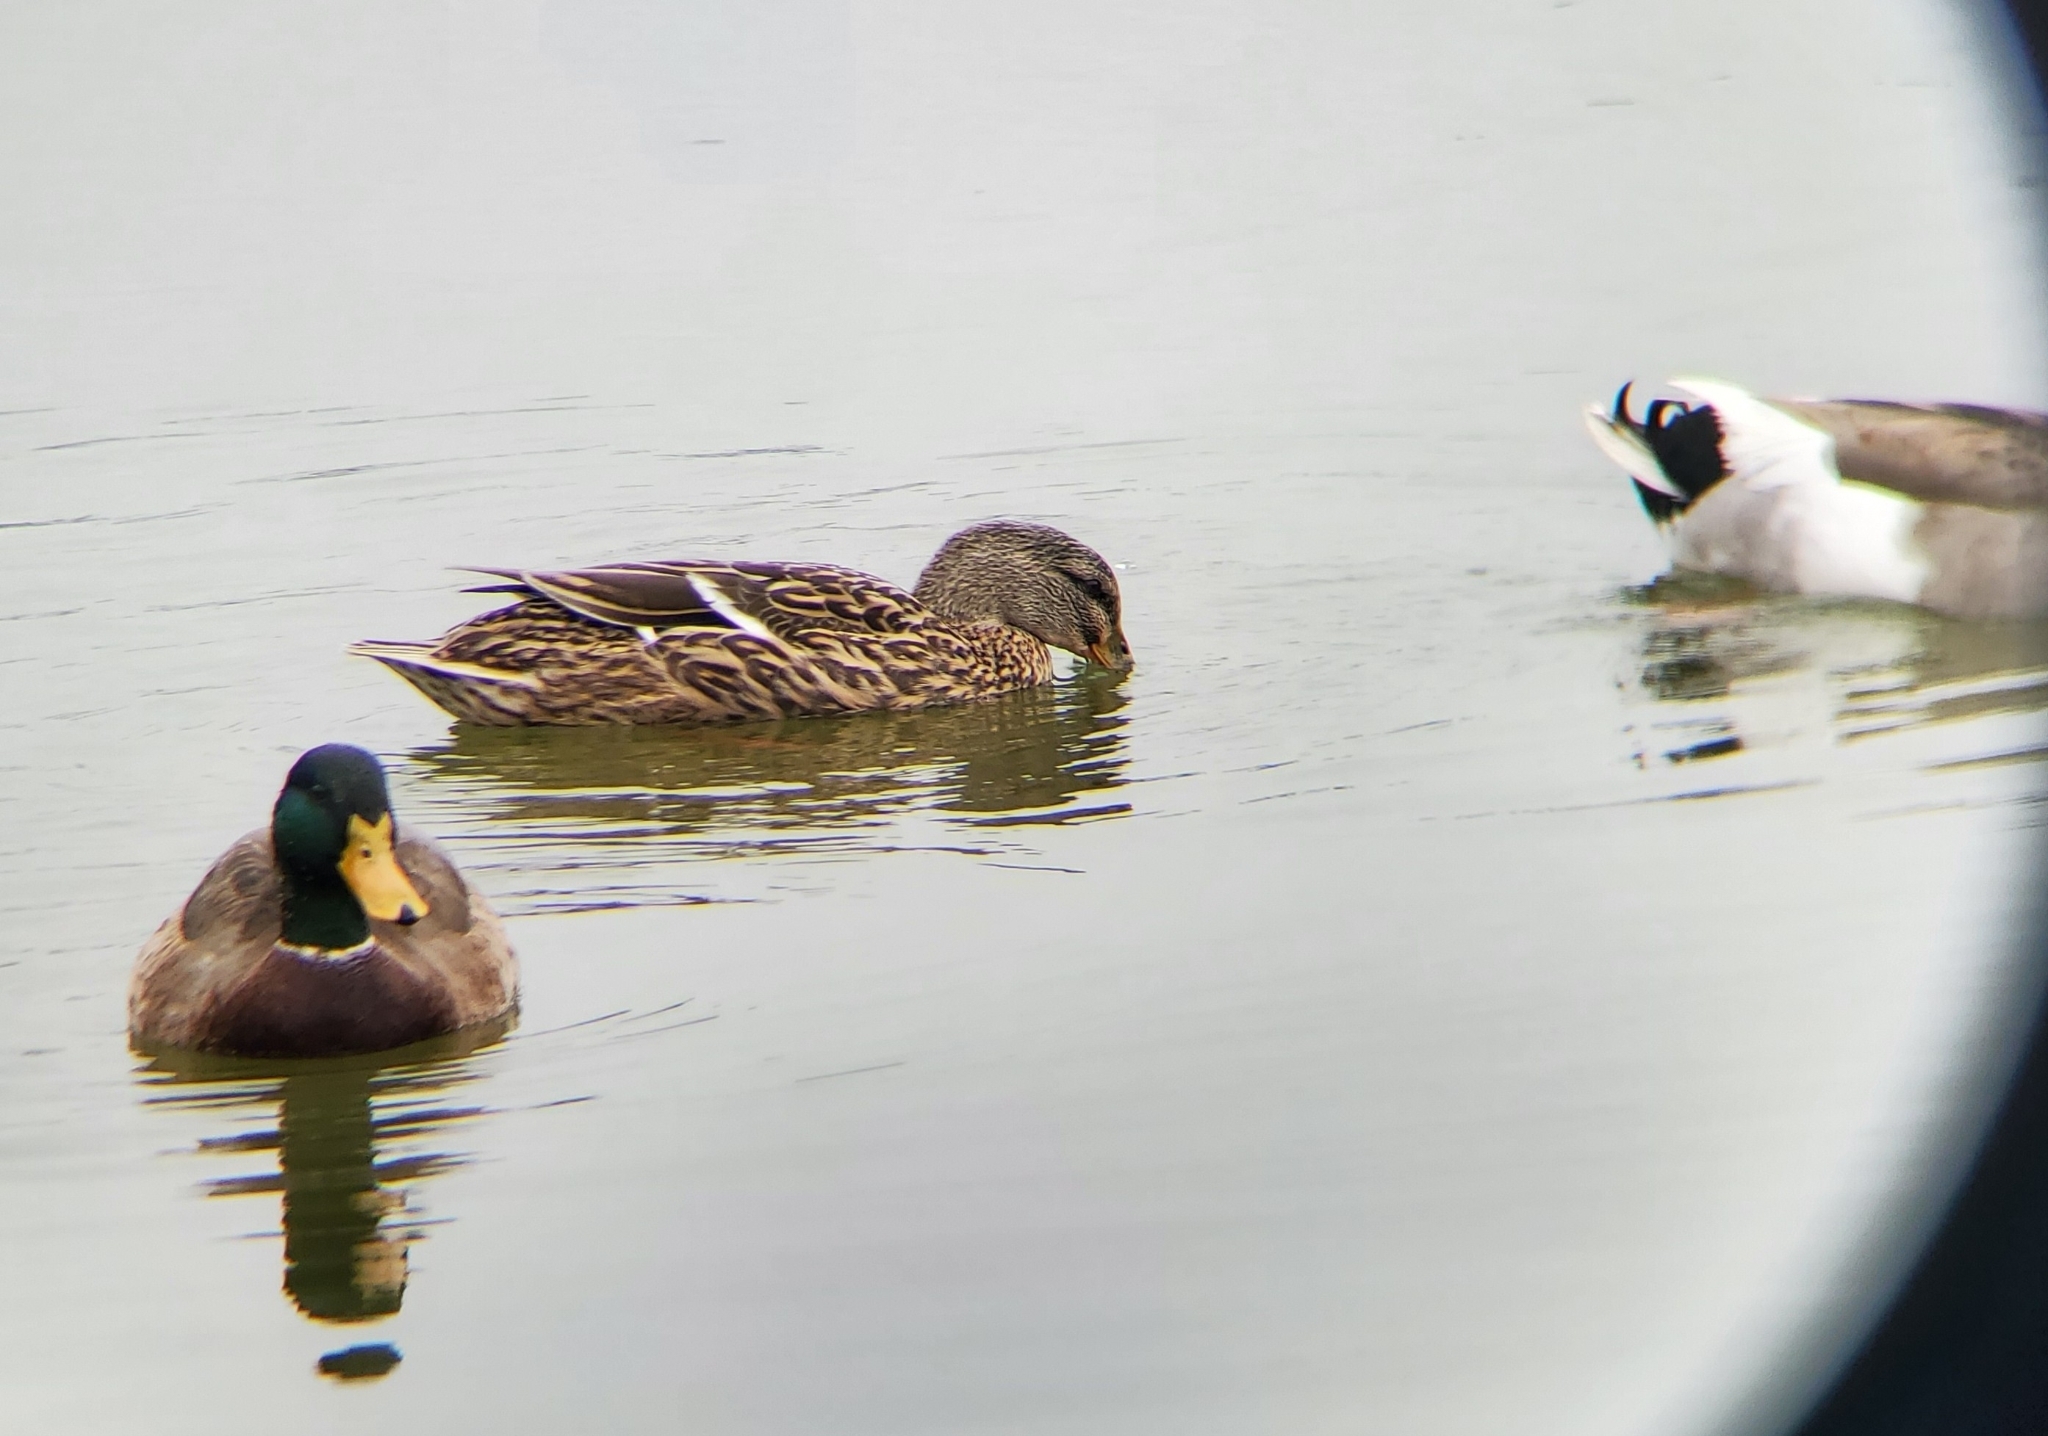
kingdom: Animalia
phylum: Chordata
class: Aves
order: Anseriformes
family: Anatidae
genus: Anas
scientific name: Anas platyrhynchos
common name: Mallard
